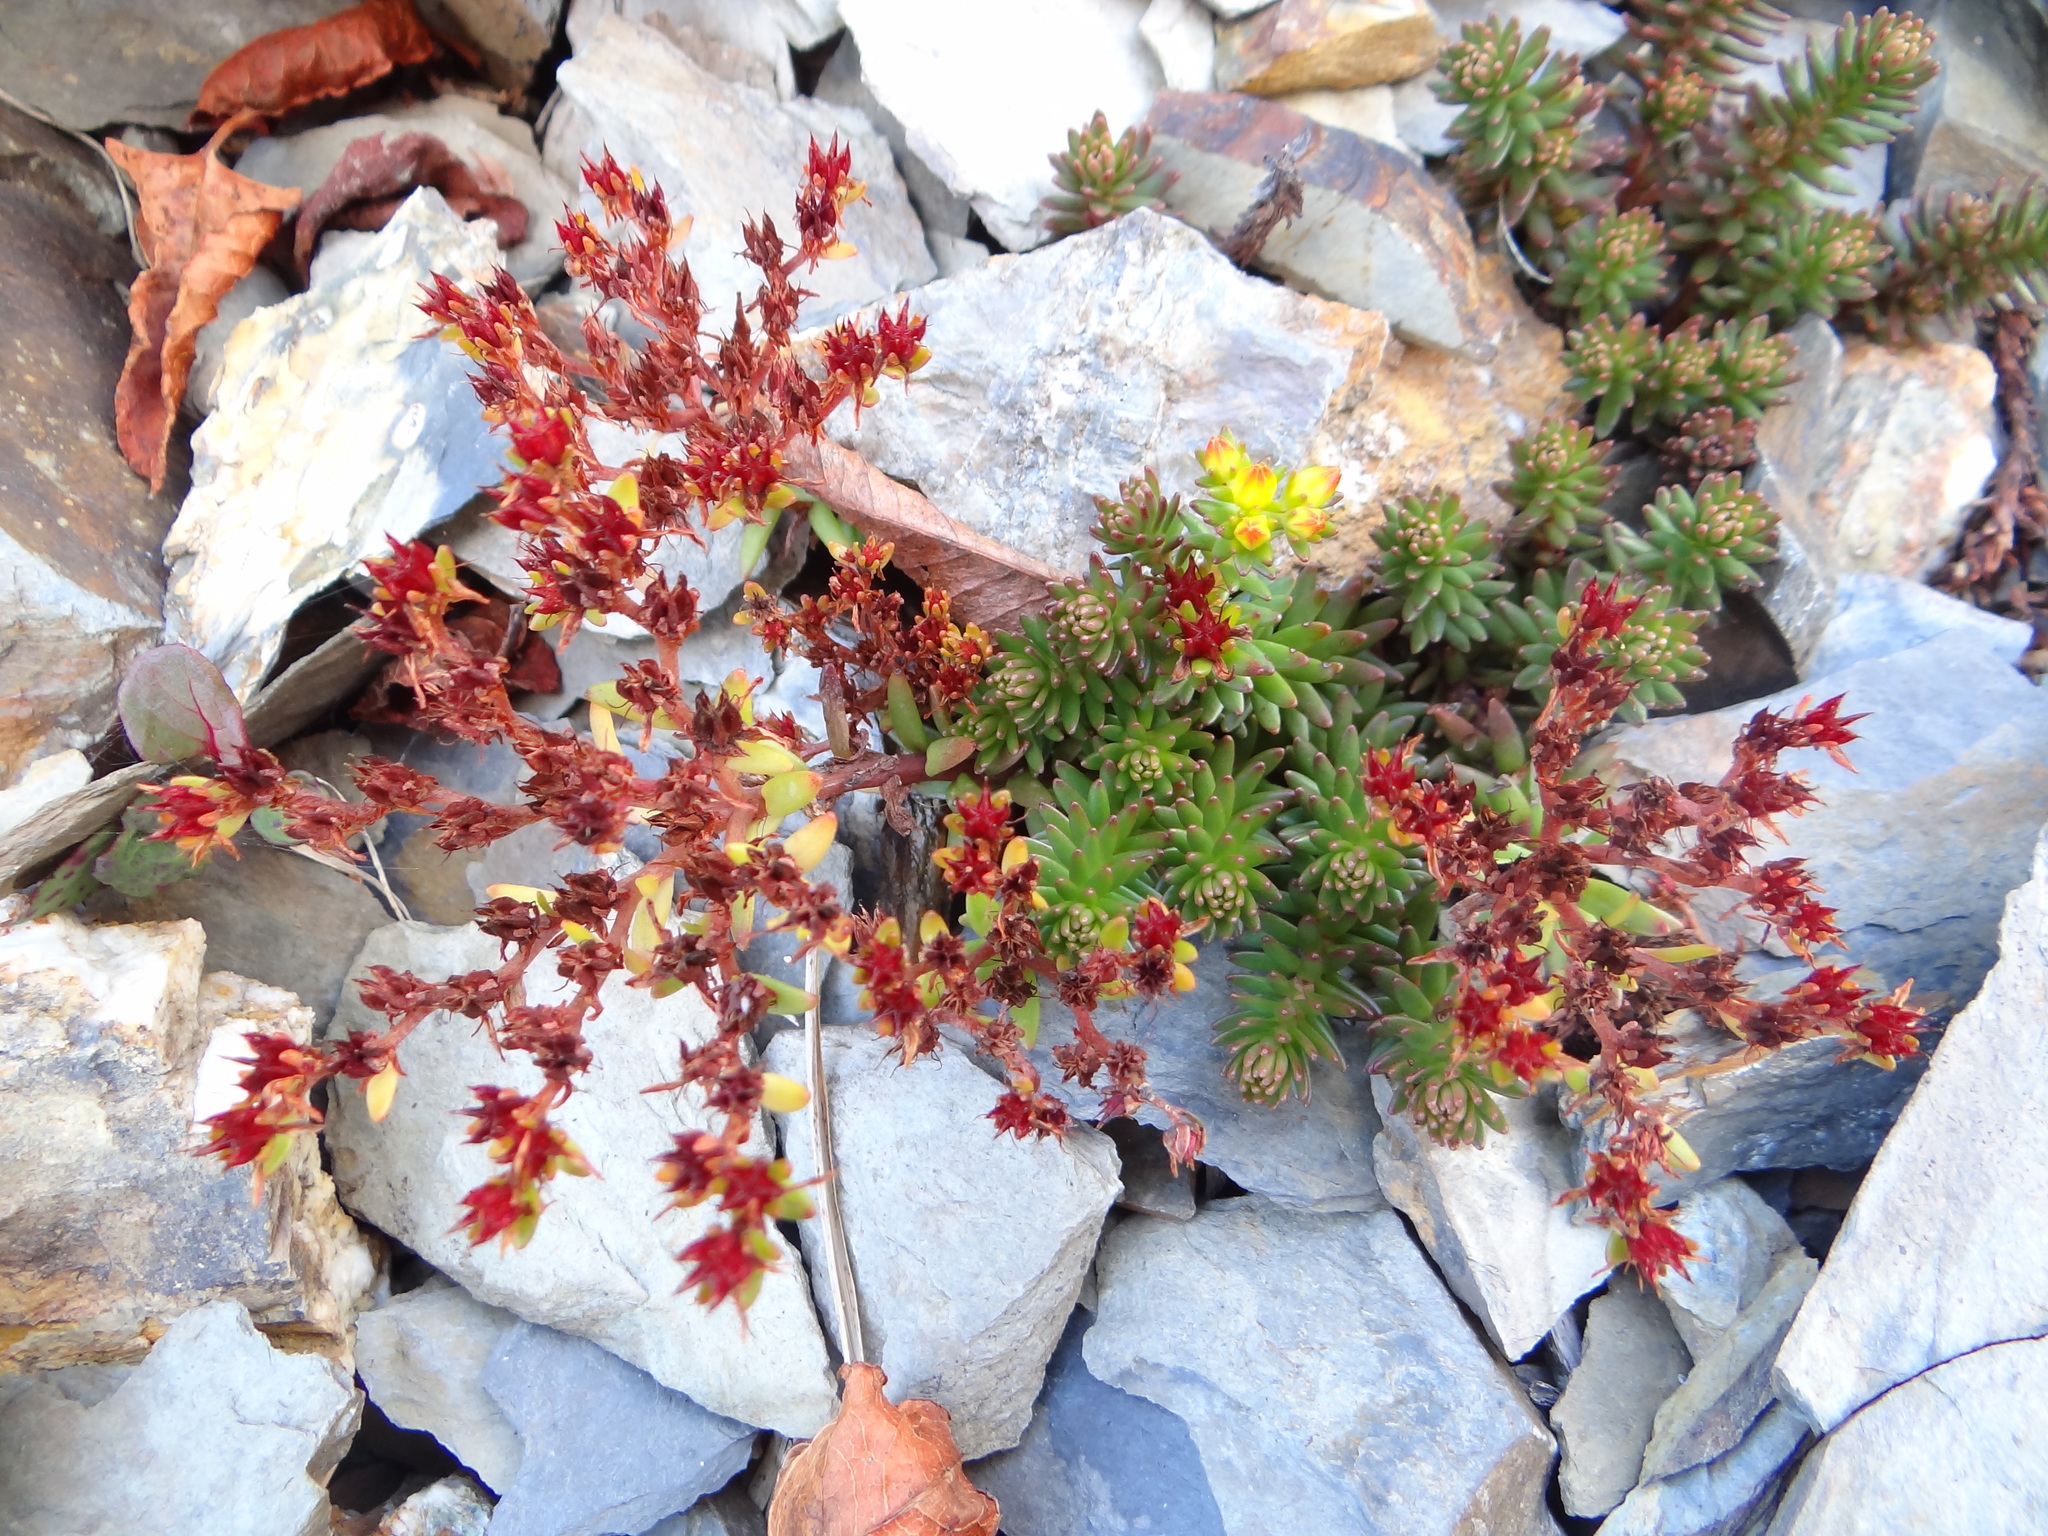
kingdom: Plantae
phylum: Tracheophyta
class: Magnoliopsida
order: Saxifragales
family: Crassulaceae
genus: Sedum
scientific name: Sedum morrisonense
